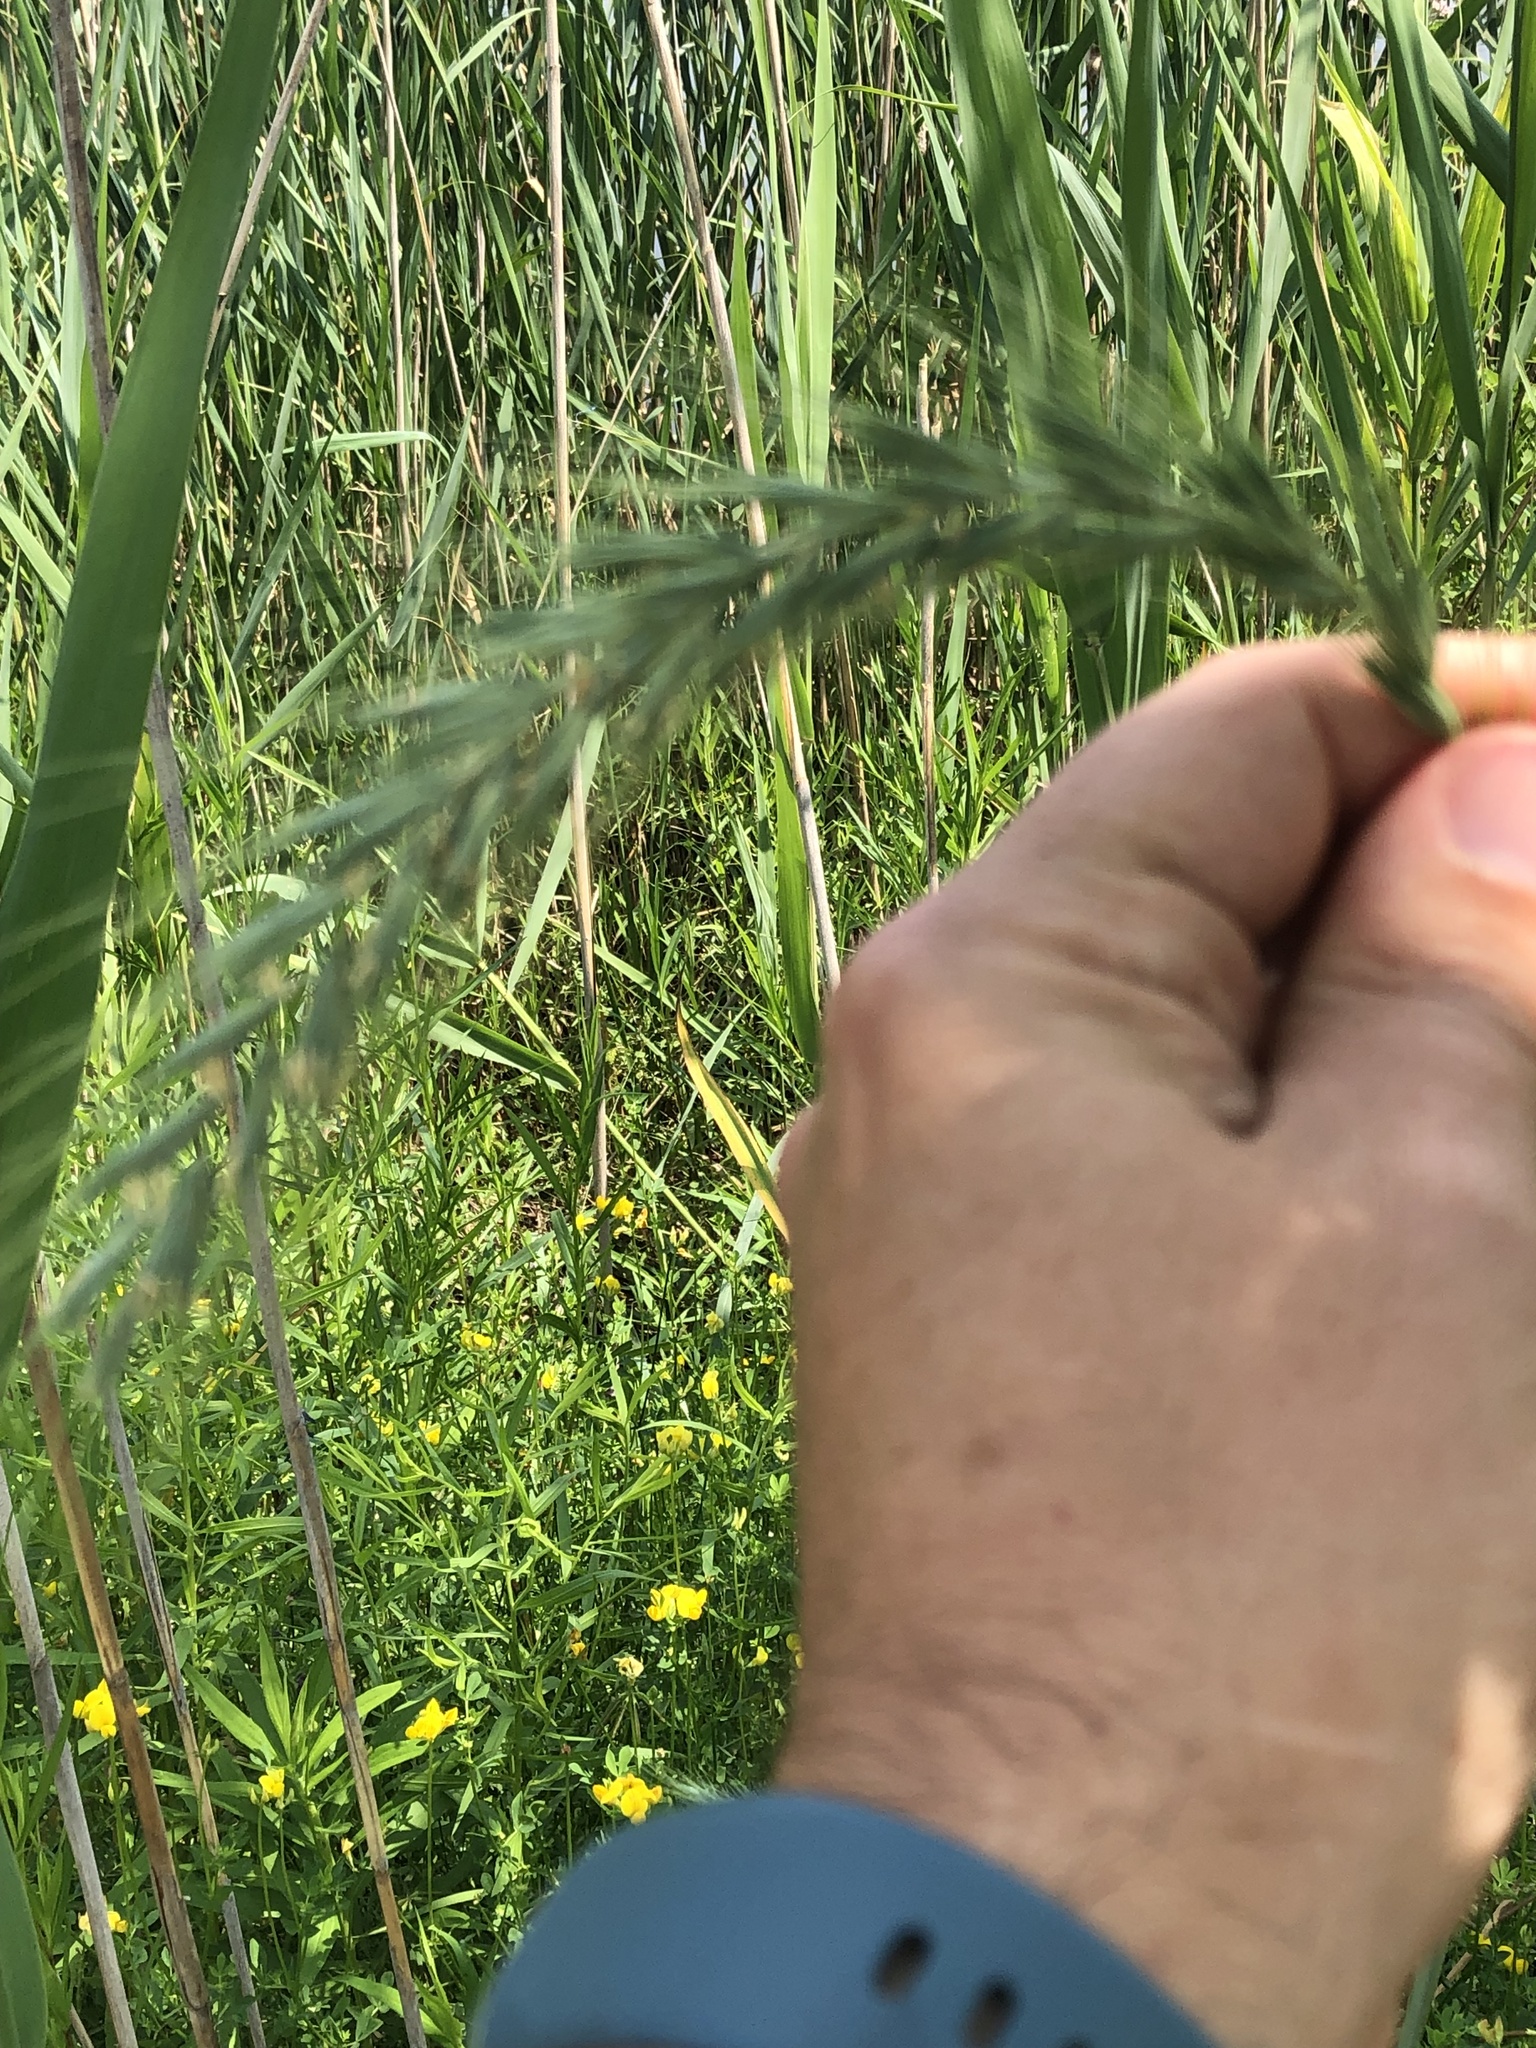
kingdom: Plantae
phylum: Tracheophyta
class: Liliopsida
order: Poales
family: Poaceae
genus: Elymus
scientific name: Elymus canadensis
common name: Canada wild rye
